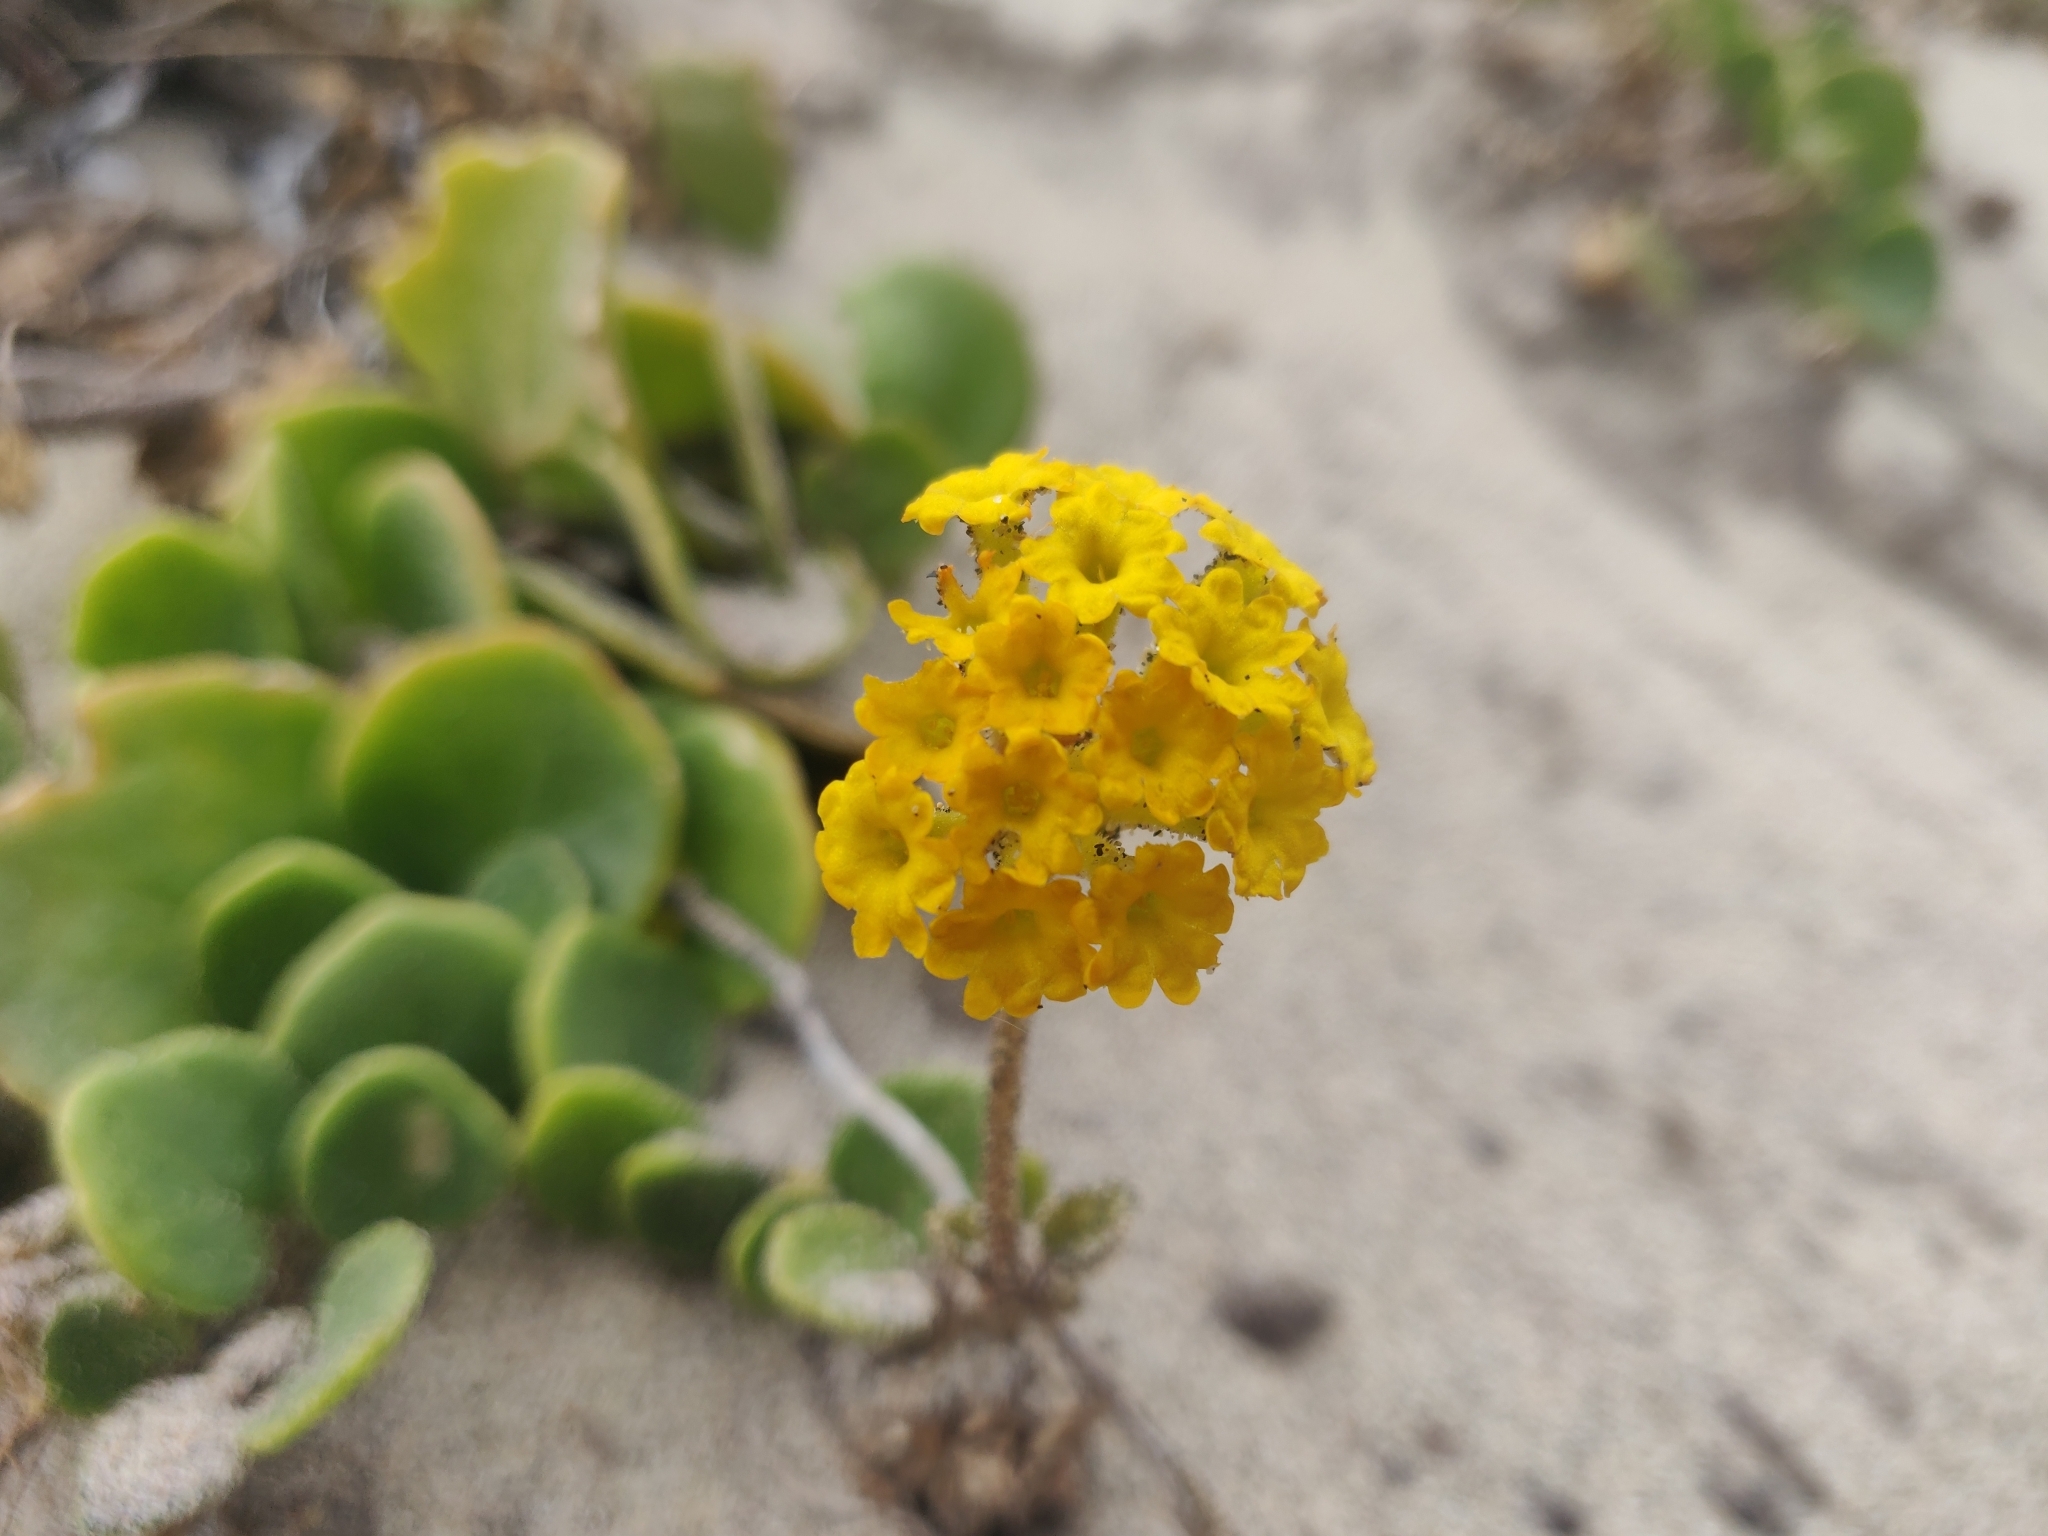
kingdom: Plantae
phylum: Tracheophyta
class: Magnoliopsida
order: Caryophyllales
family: Nyctaginaceae
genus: Abronia
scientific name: Abronia latifolia
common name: Yellow sand-verbena
